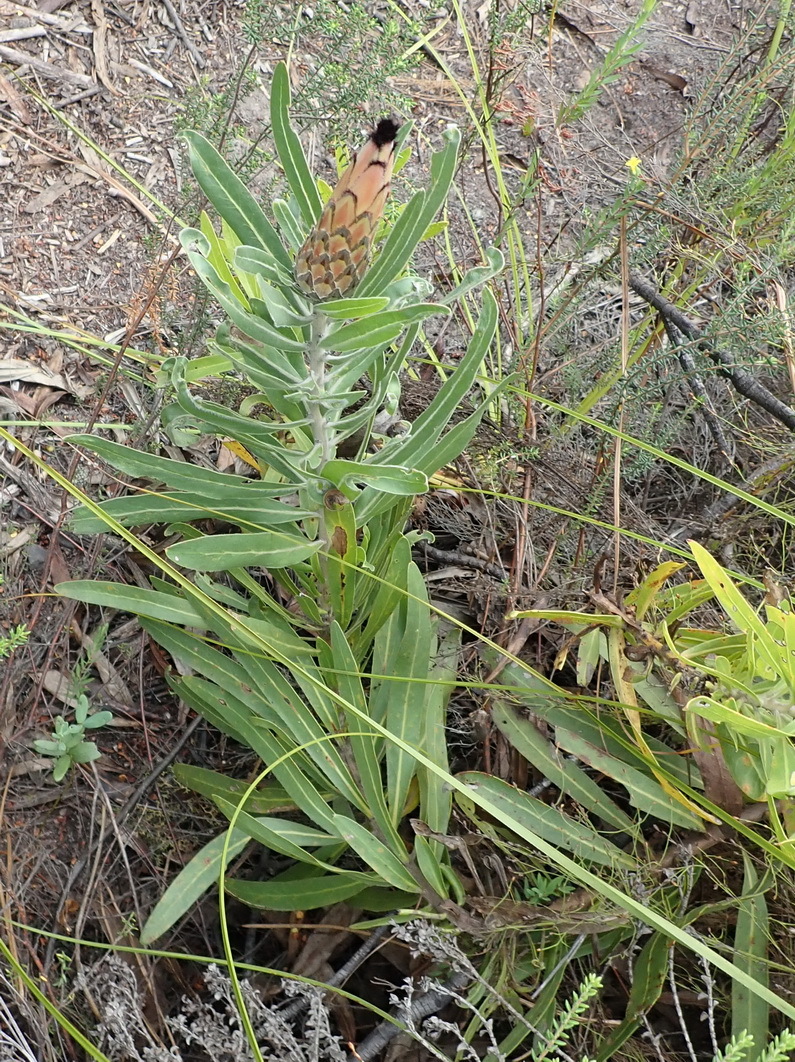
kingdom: Plantae
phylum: Tracheophyta
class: Magnoliopsida
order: Proteales
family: Proteaceae
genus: Protea
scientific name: Protea neriifolia
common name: Blue sugarbush
